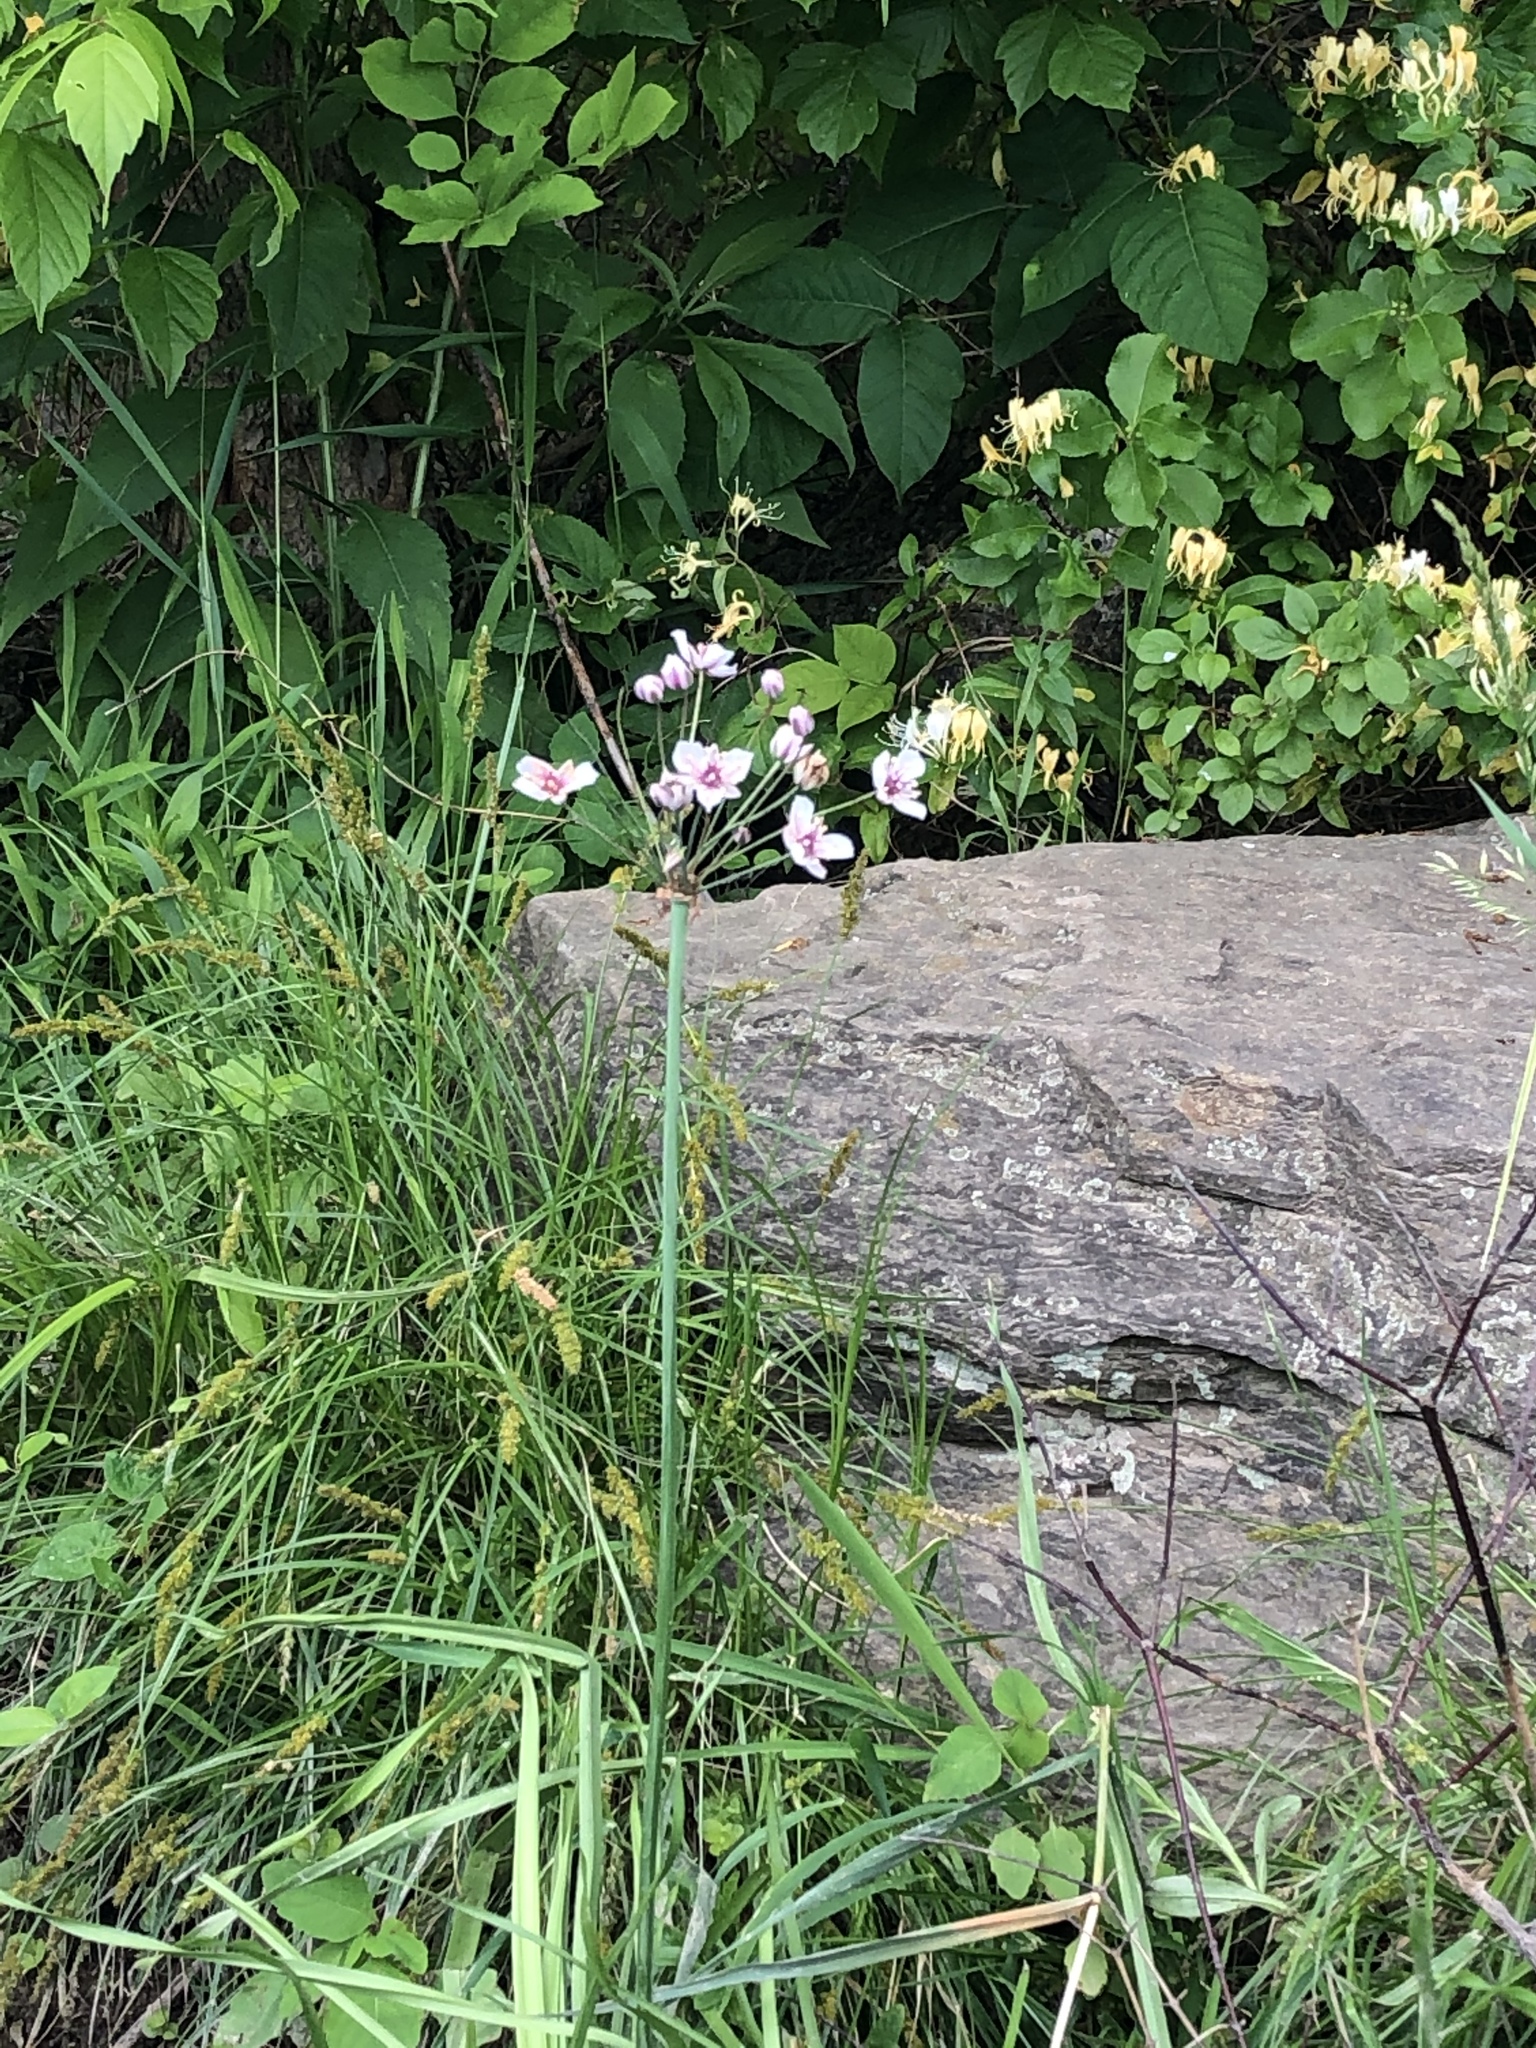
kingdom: Plantae
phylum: Tracheophyta
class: Liliopsida
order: Alismatales
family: Butomaceae
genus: Butomus
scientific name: Butomus umbellatus
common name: Flowering-rush
